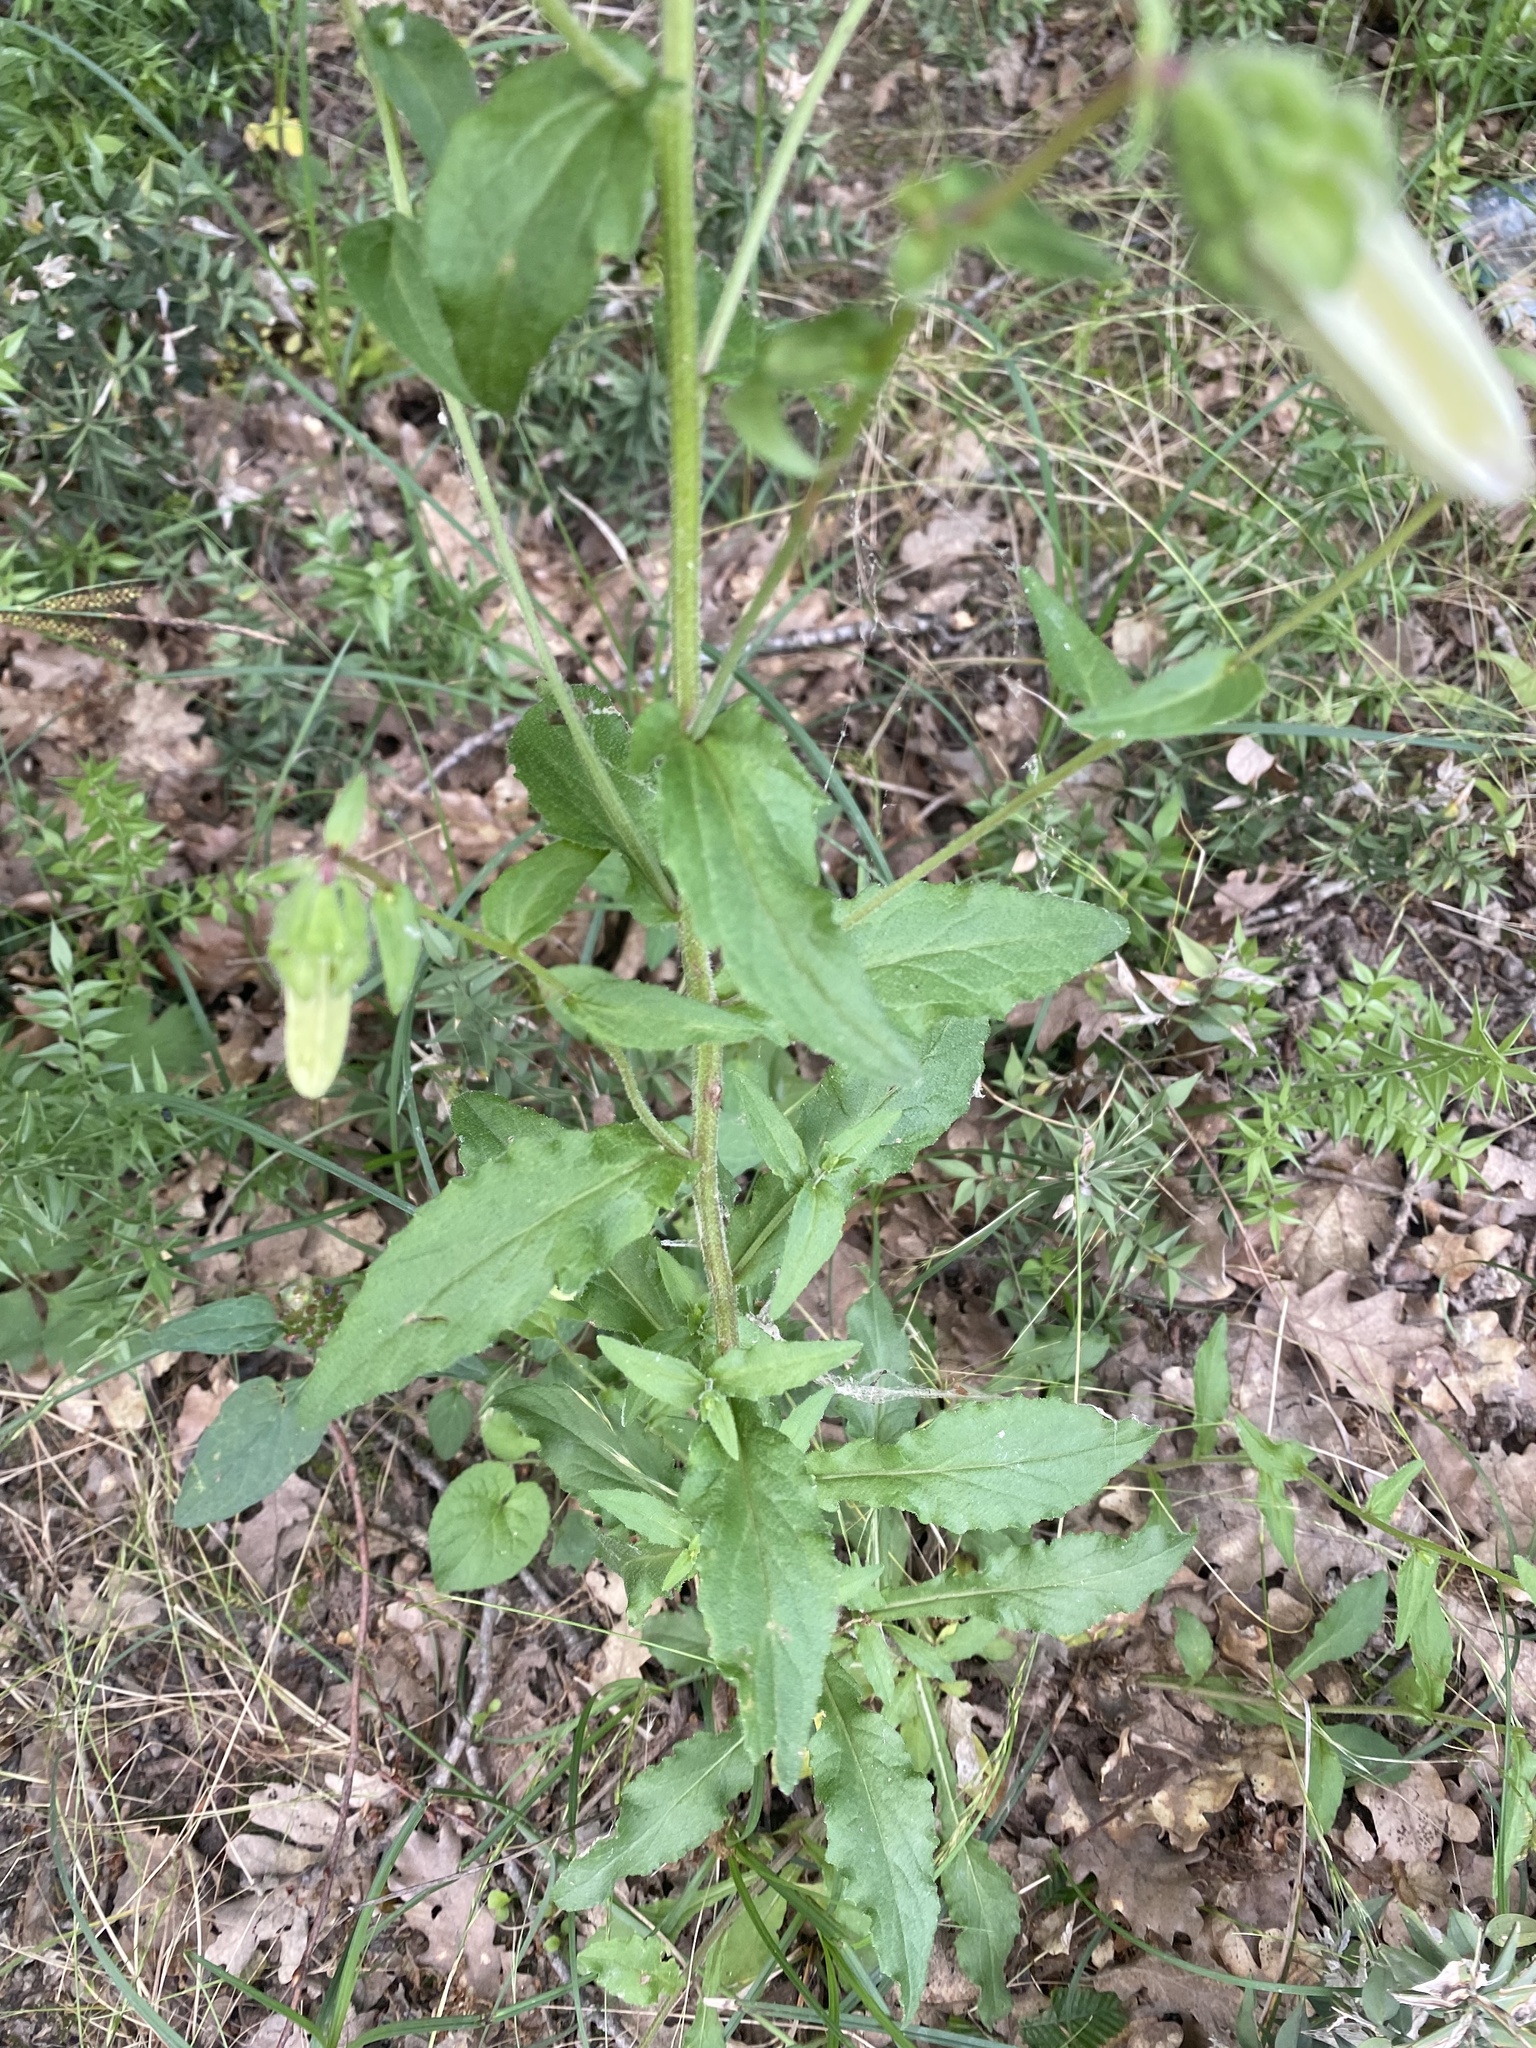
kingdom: Plantae
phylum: Tracheophyta
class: Magnoliopsida
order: Asterales
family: Campanulaceae
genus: Campanula
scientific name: Campanula komarovii
